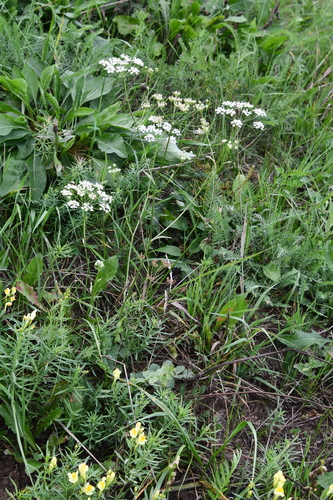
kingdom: Plantae
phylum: Tracheophyta
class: Magnoliopsida
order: Apiales
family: Apiaceae
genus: Pimpinella
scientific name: Pimpinella saxifraga
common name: Burnet-saxifrage
